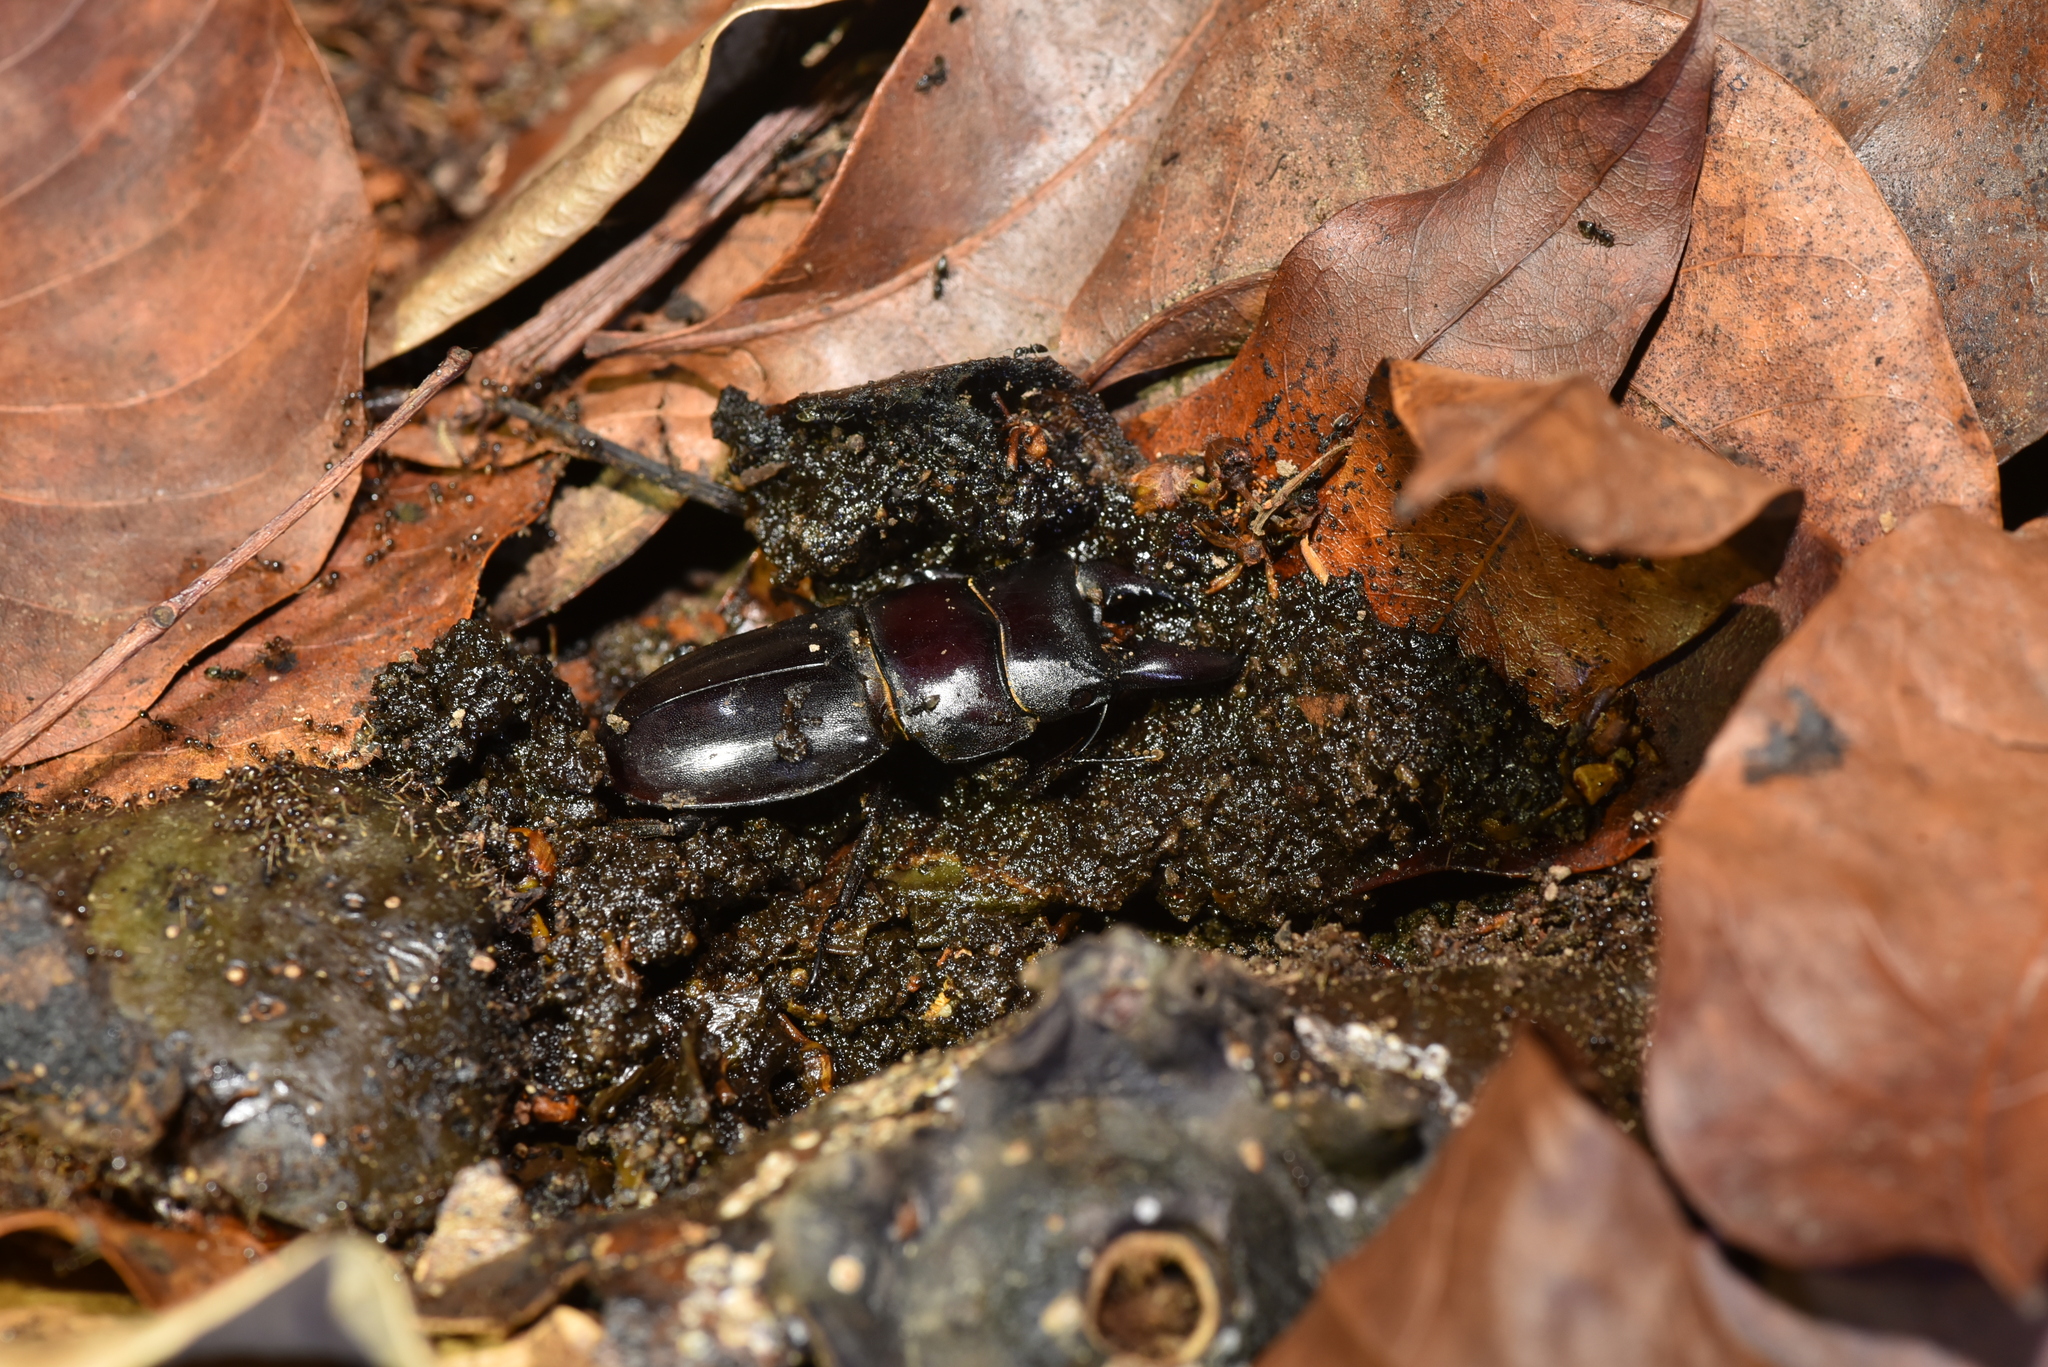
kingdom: Animalia
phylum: Arthropoda
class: Insecta
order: Coleoptera
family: Lucanidae
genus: Serrognathus
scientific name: Serrognathus titanus
